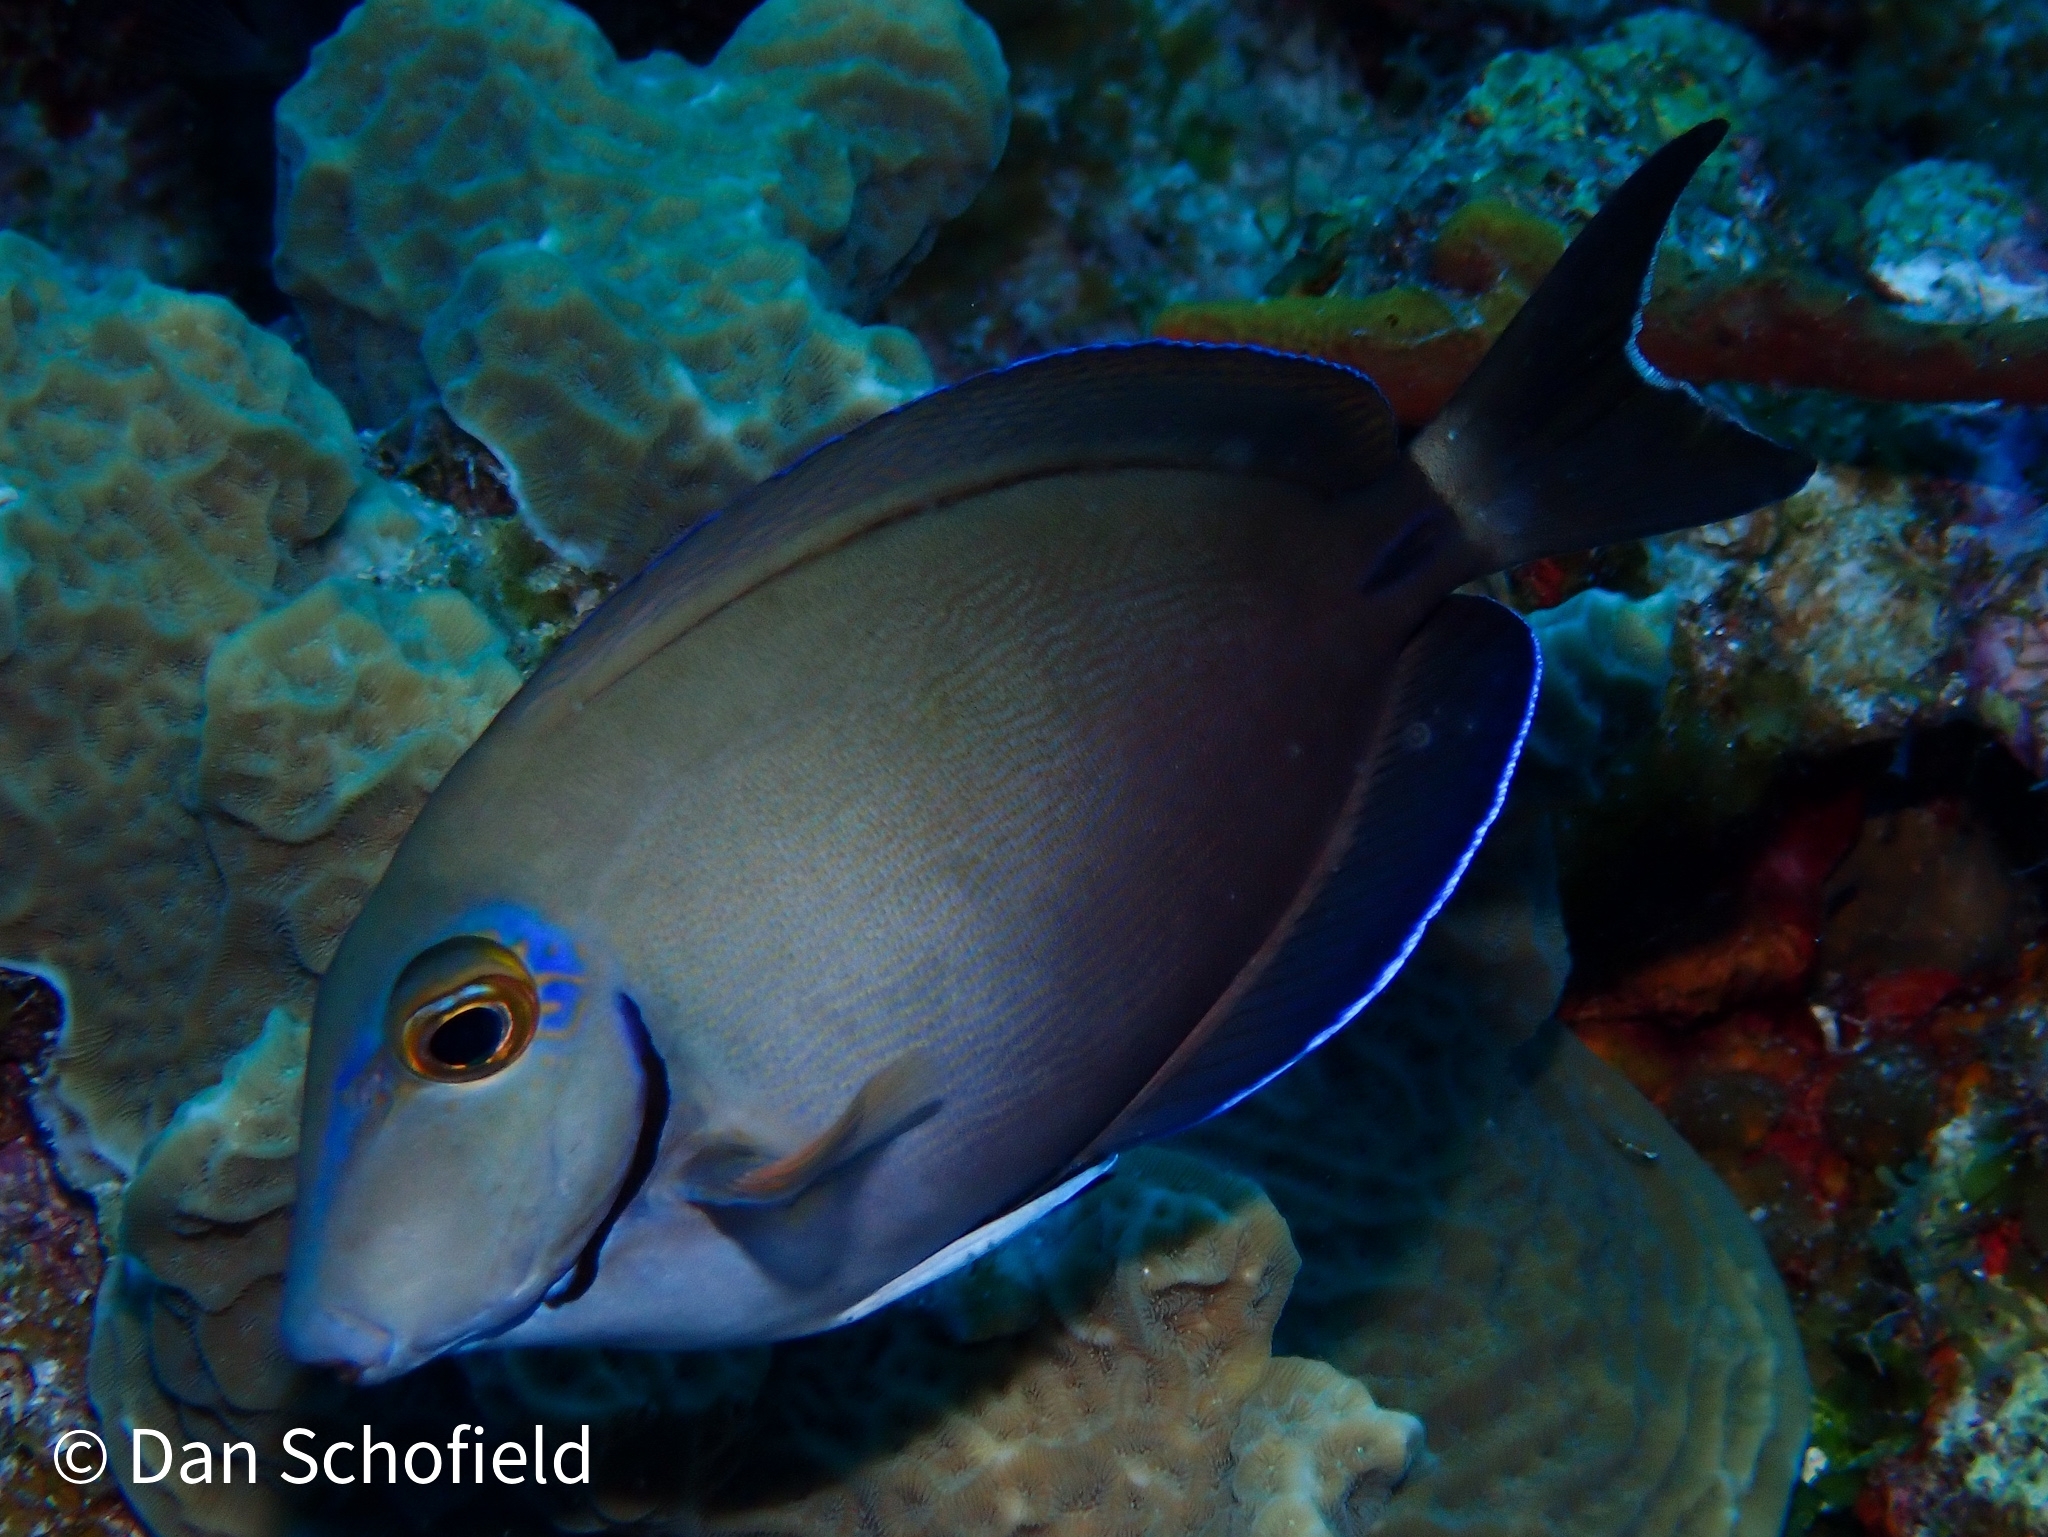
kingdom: Animalia
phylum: Chordata
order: Perciformes
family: Acanthuridae
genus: Acanthurus
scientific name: Acanthurus bahianus
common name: Ocean surgeon
